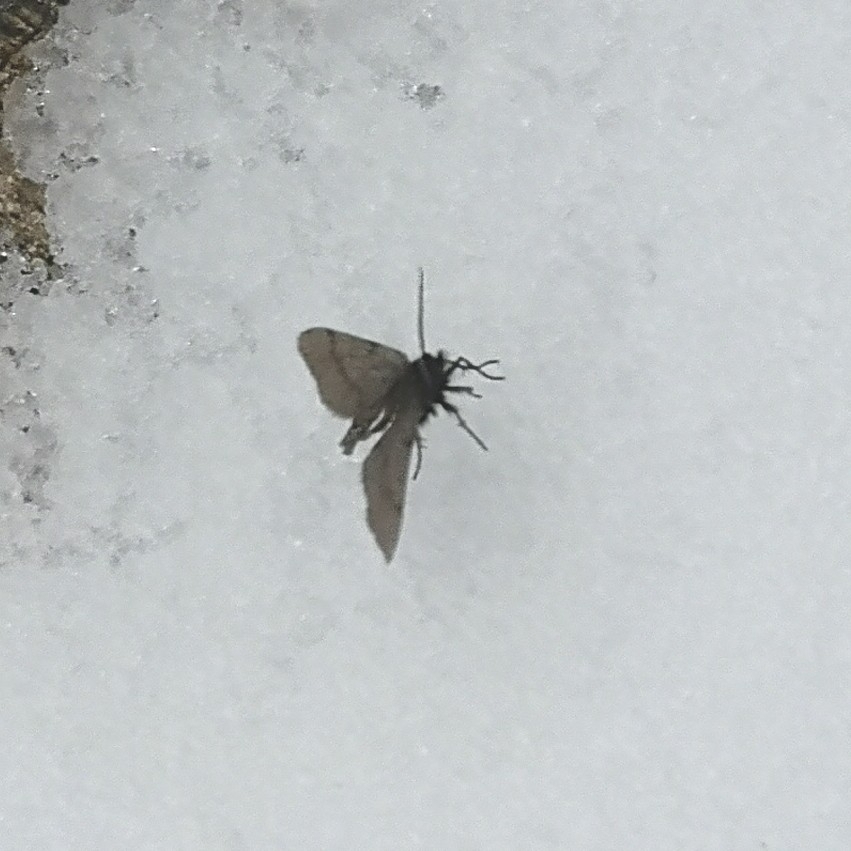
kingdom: Animalia
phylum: Arthropoda
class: Insecta
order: Lepidoptera
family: Geometridae
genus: Macaria
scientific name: Macaria fusca
